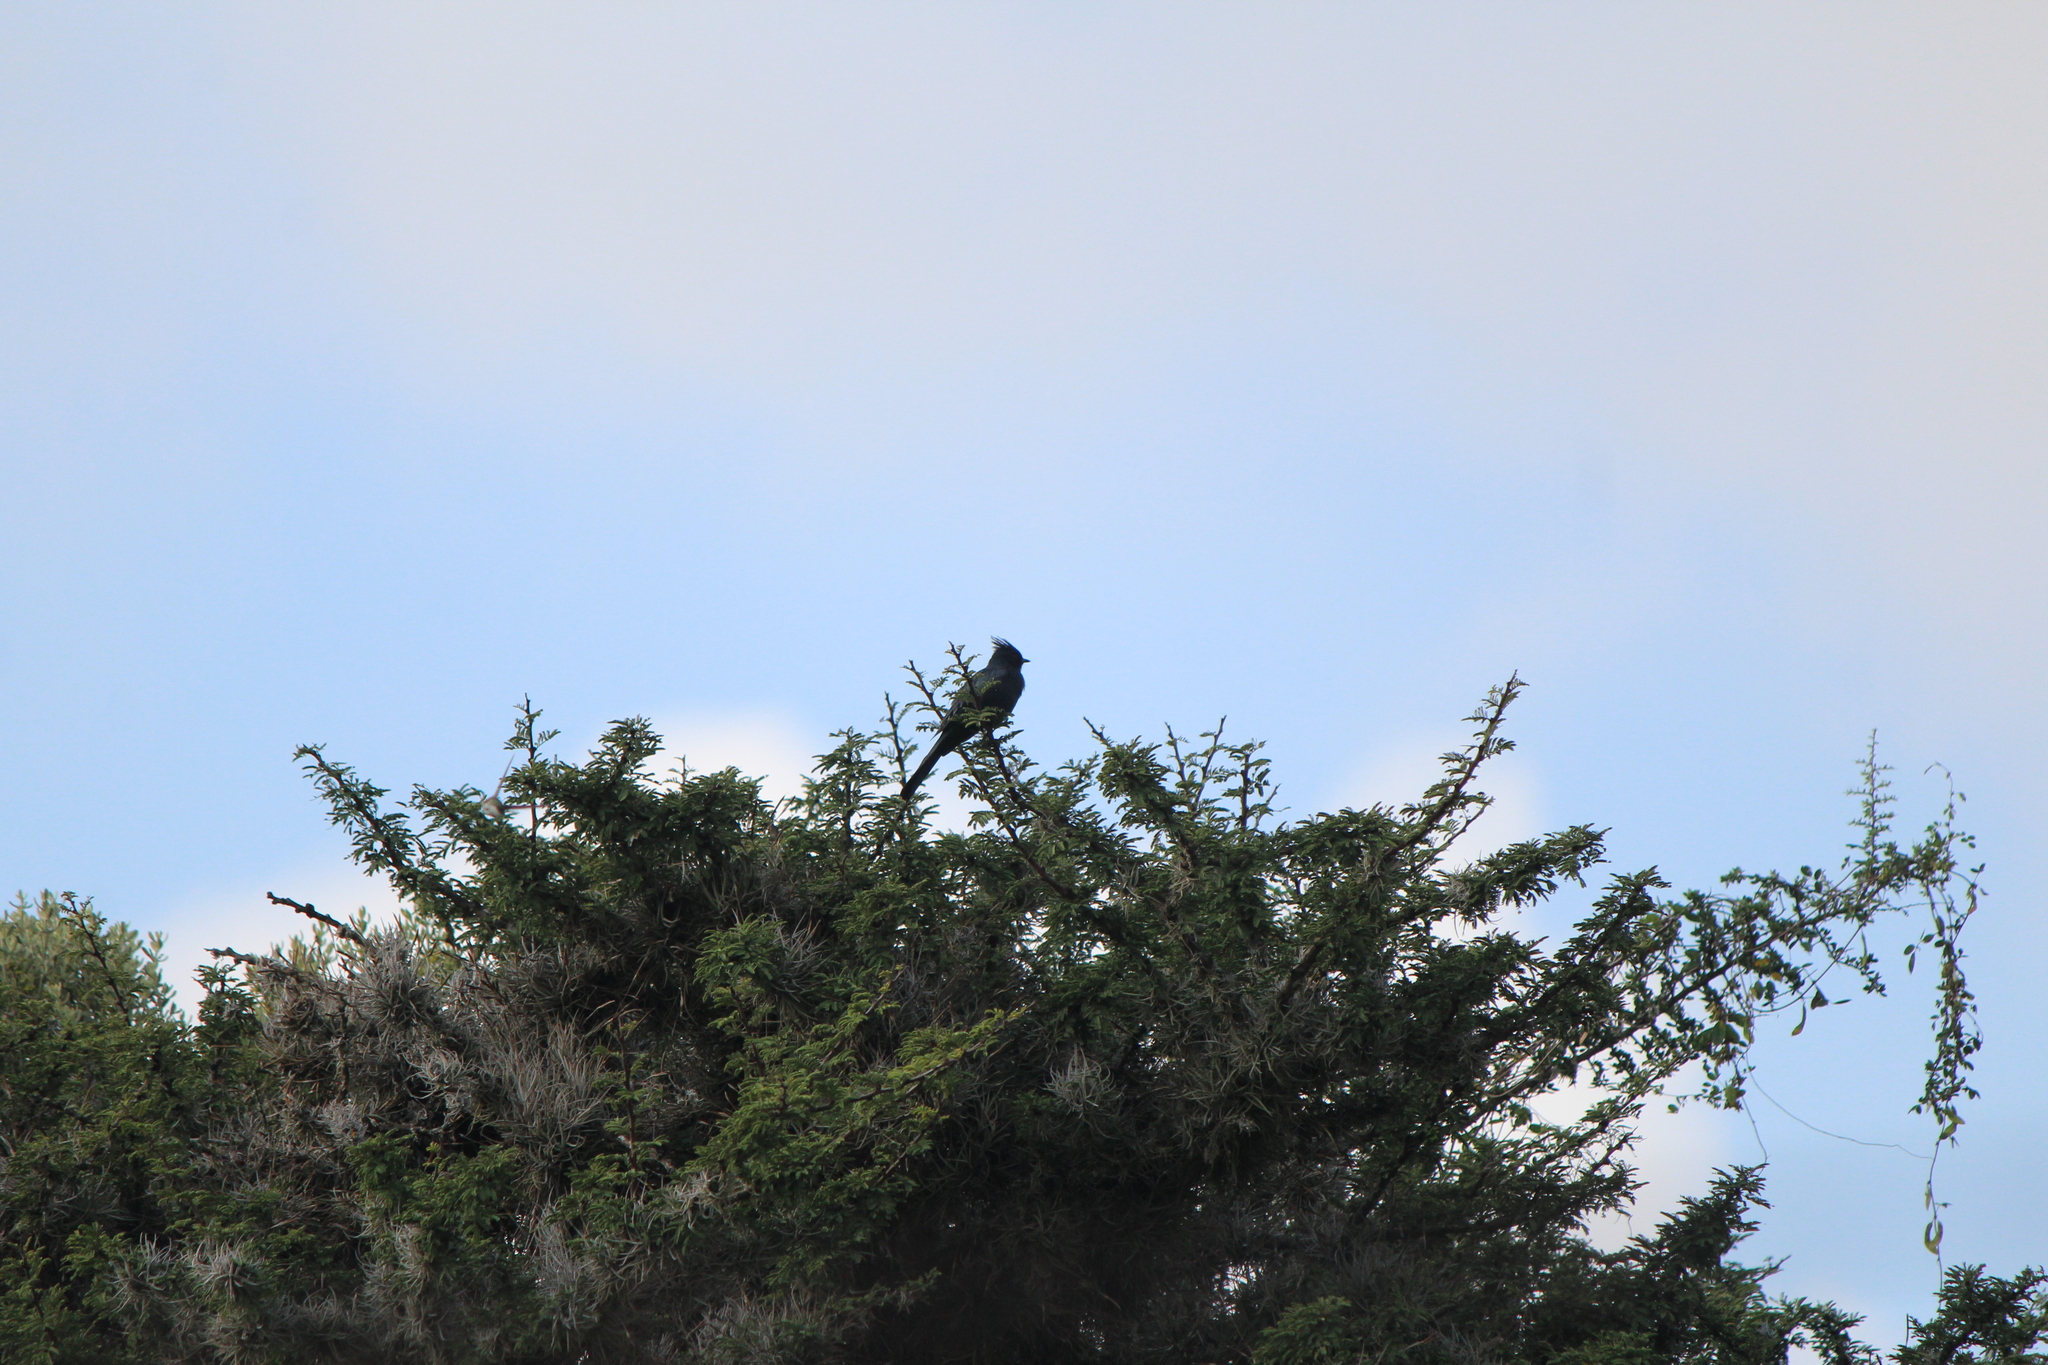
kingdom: Animalia
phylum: Chordata
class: Aves
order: Passeriformes
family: Ptilogonatidae
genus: Phainopepla
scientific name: Phainopepla nitens
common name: Phainopepla
